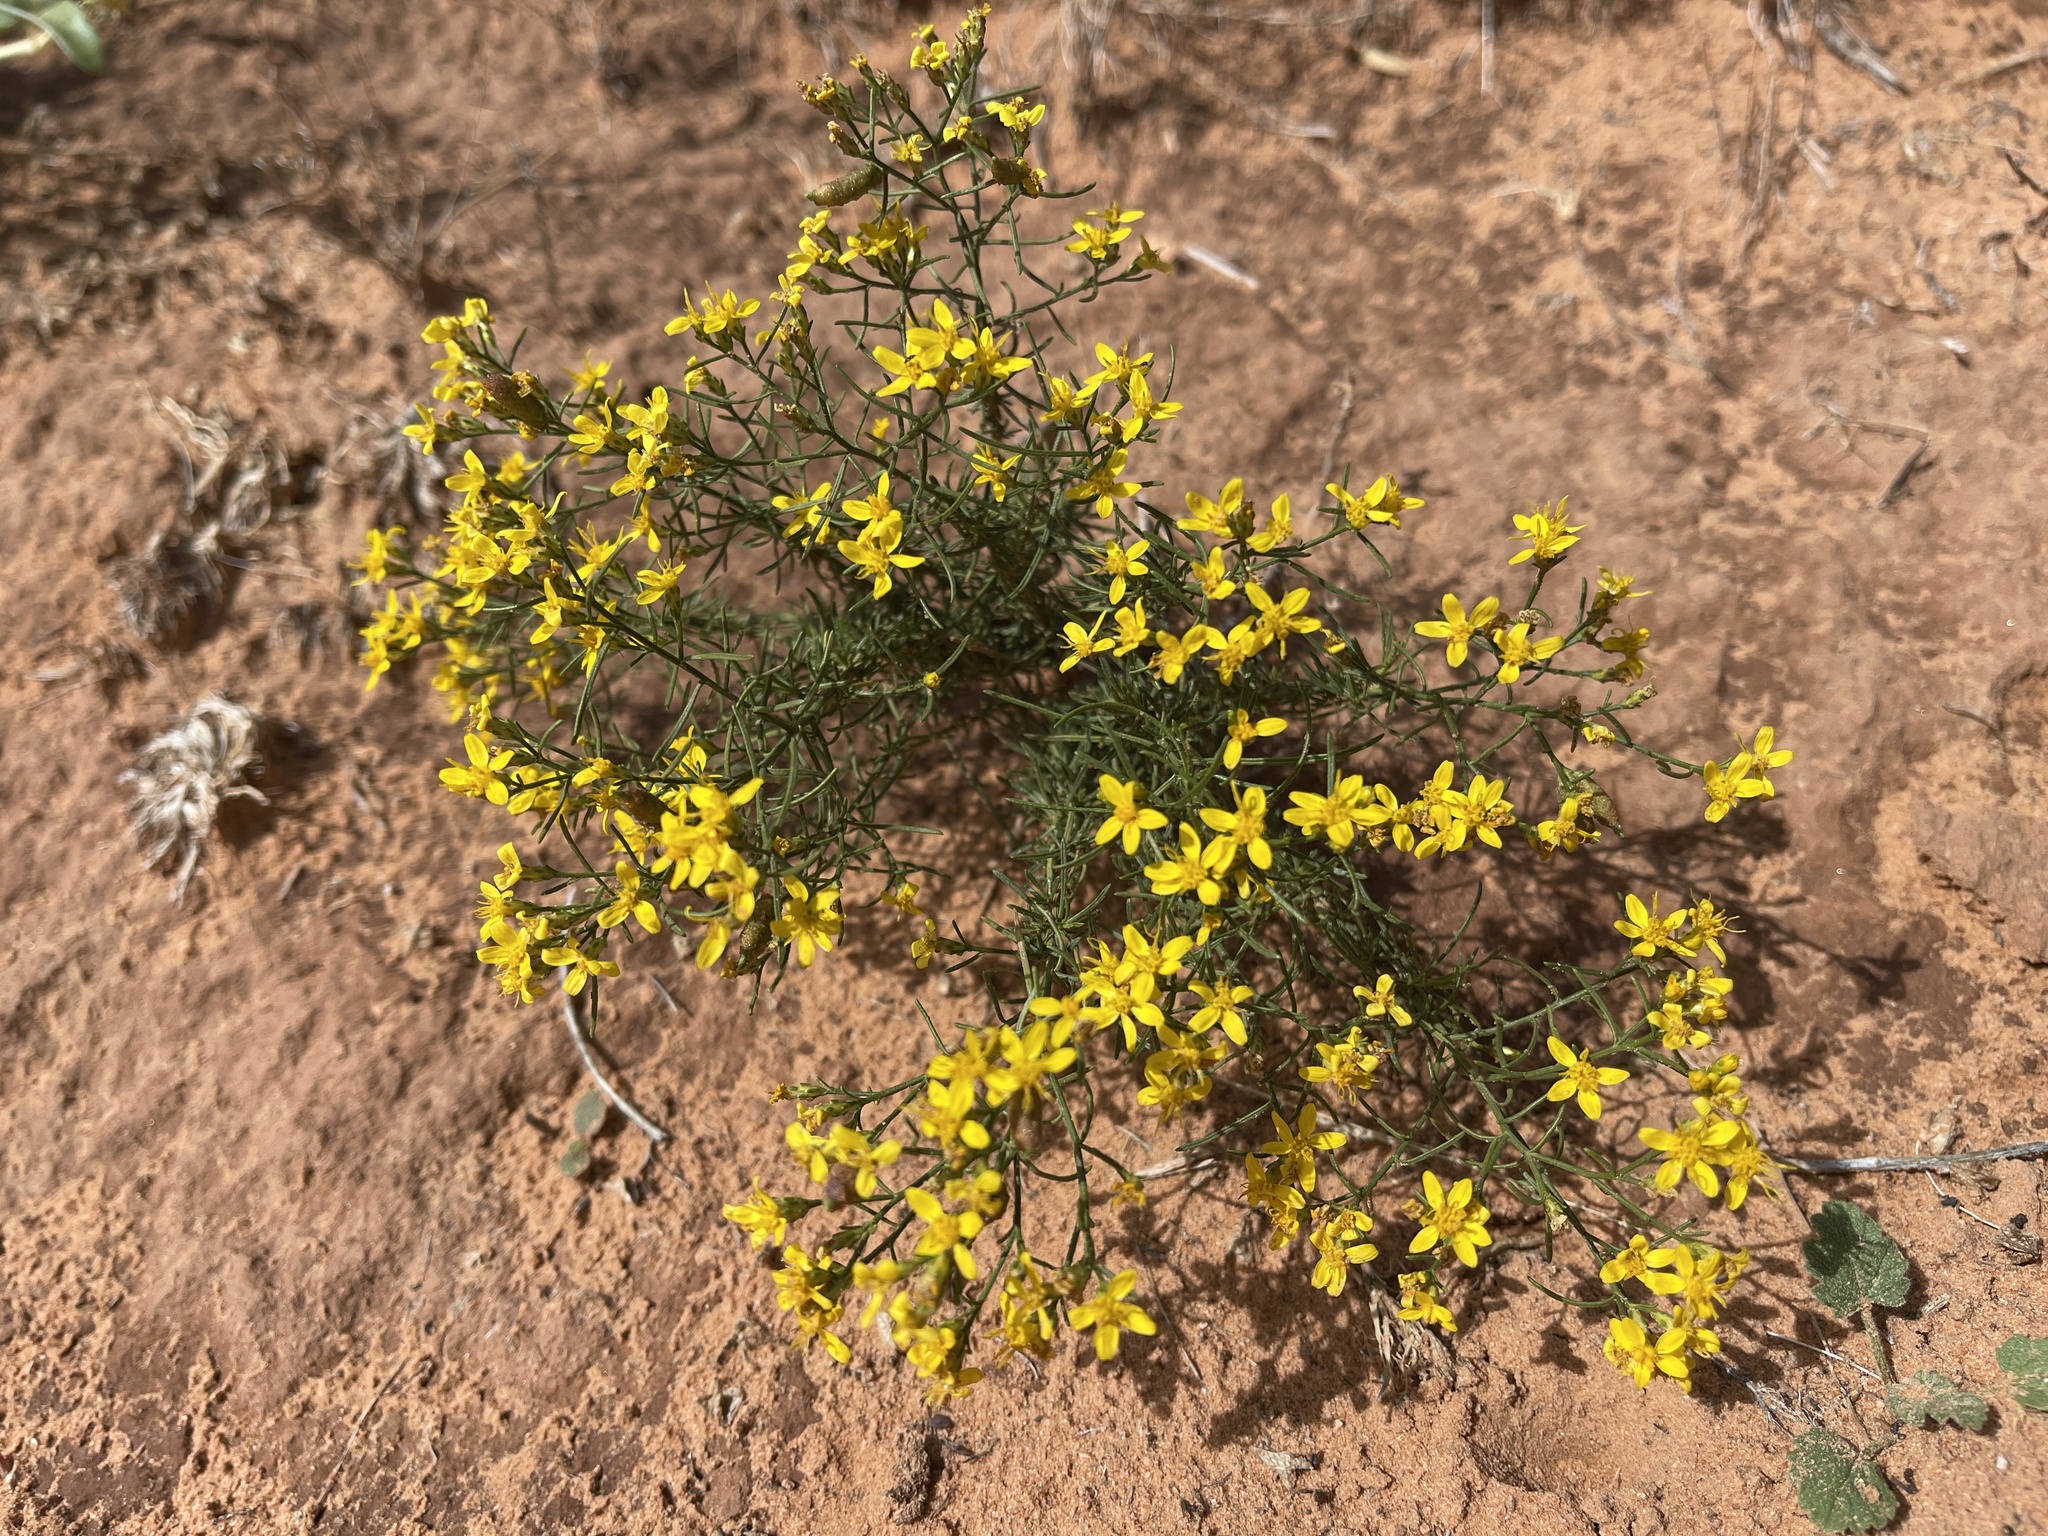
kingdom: Plantae
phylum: Tracheophyta
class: Magnoliopsida
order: Asterales
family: Asteraceae
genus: Gutierrezia
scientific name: Gutierrezia sarothrae
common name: Broom snakeweed
